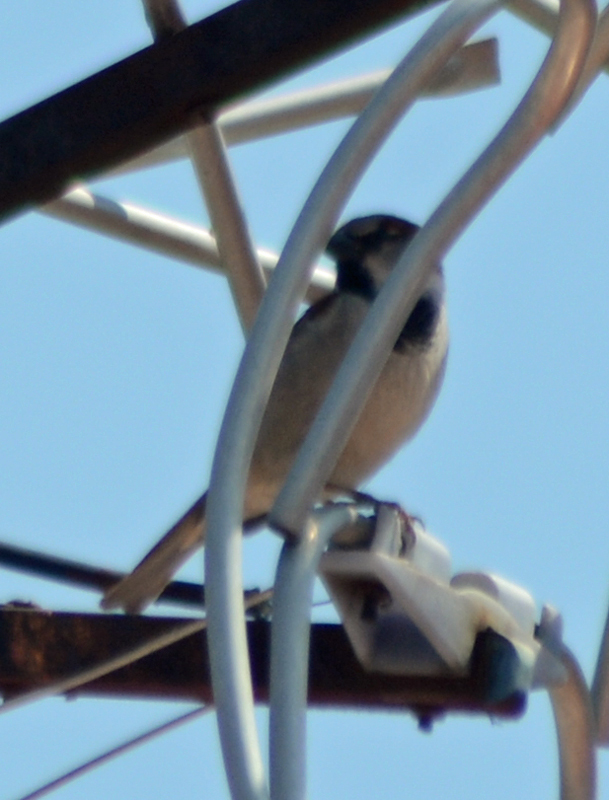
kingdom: Animalia
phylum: Chordata
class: Aves
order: Passeriformes
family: Passeridae
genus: Passer
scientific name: Passer domesticus
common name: House sparrow
